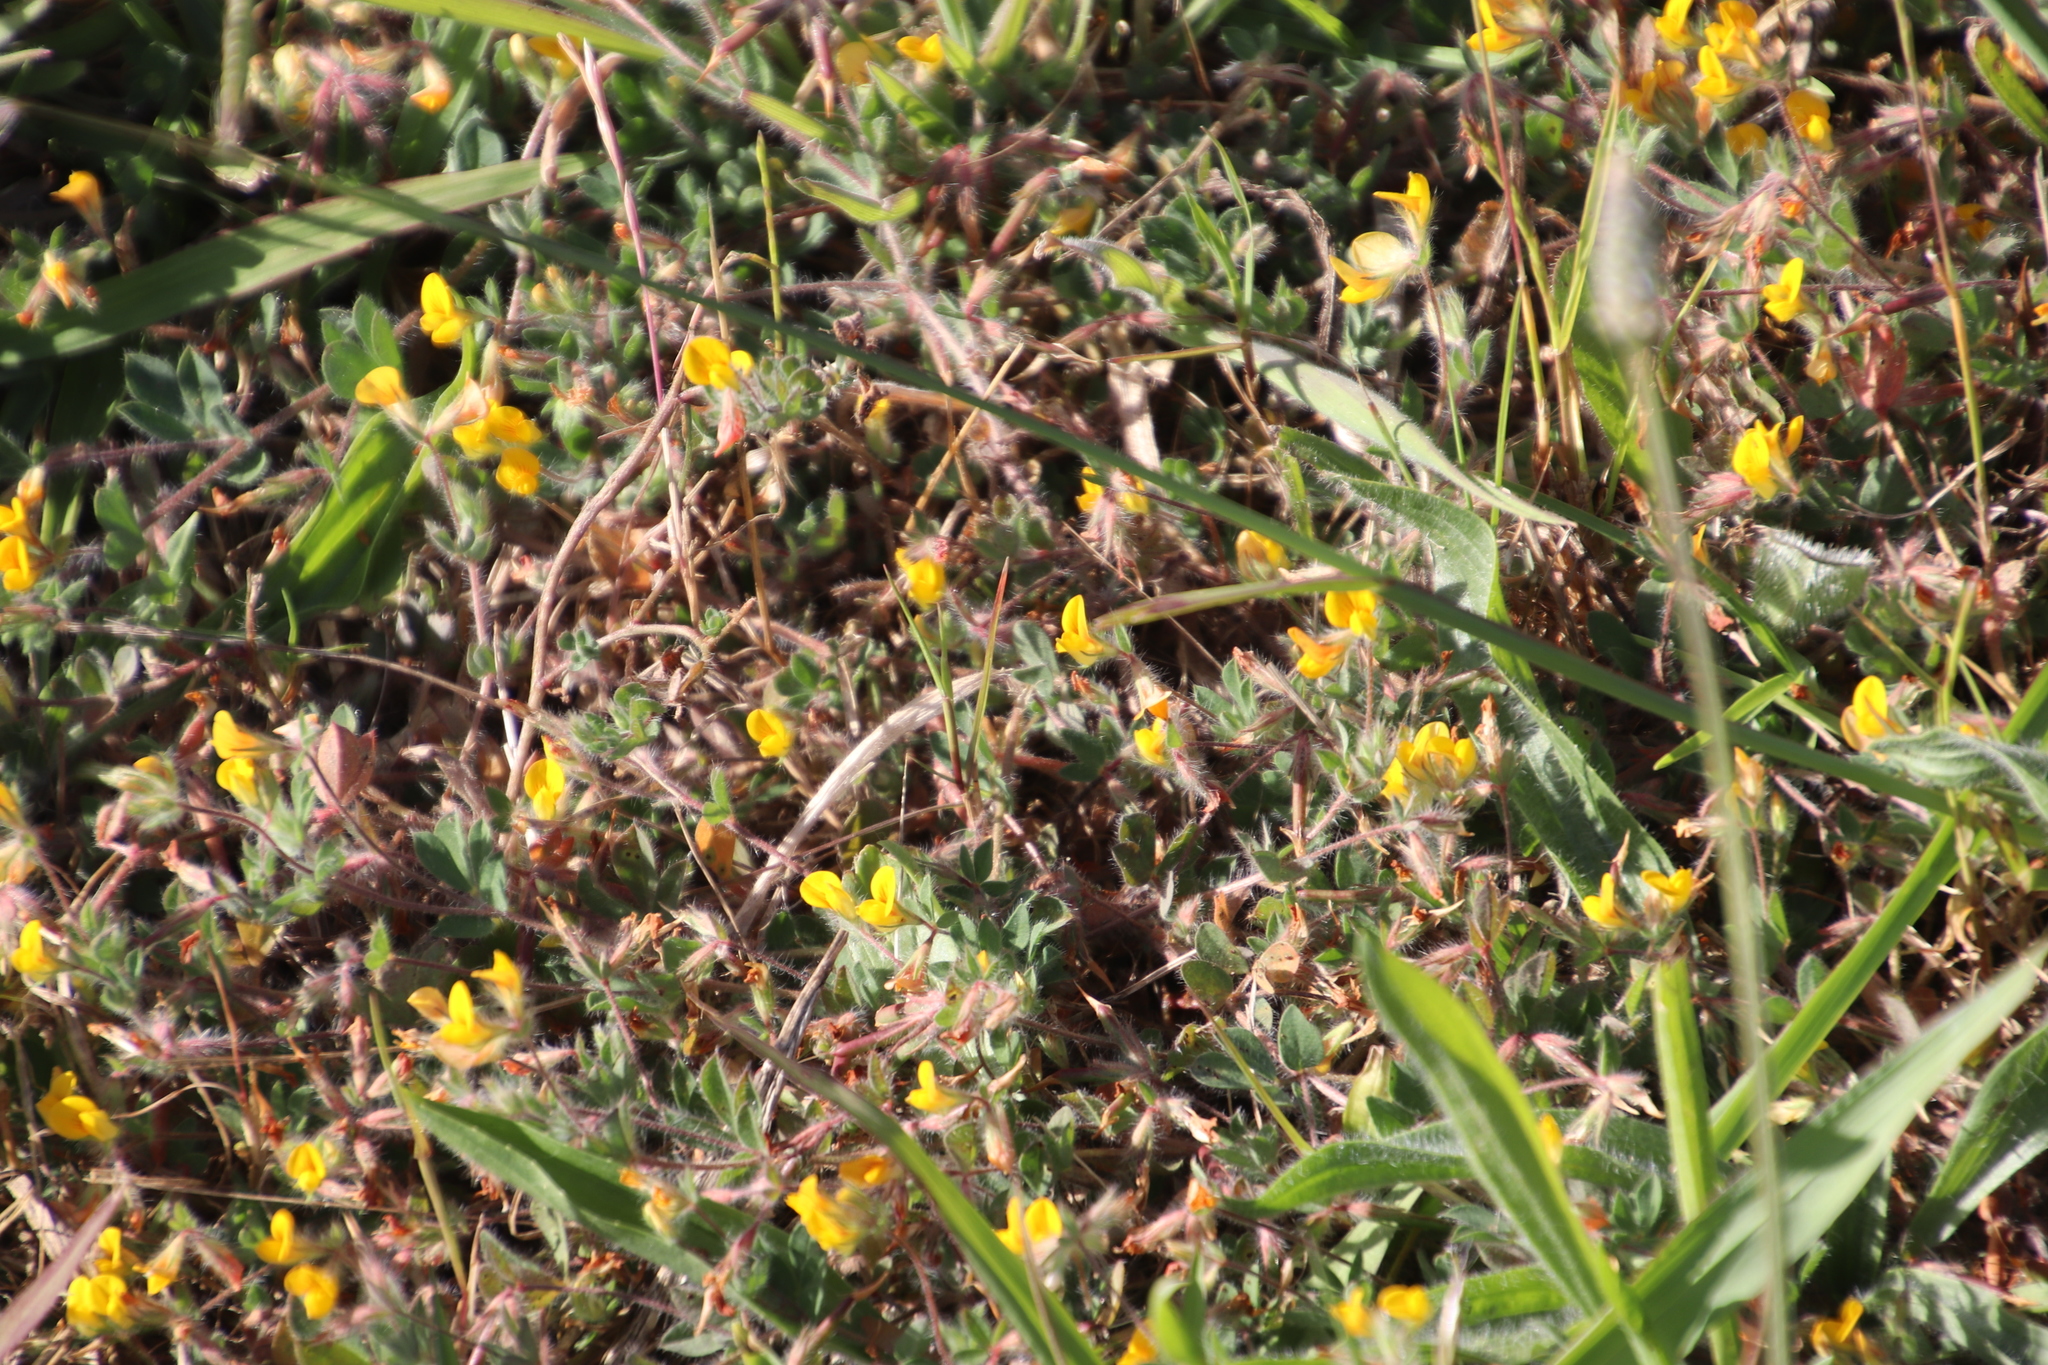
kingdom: Plantae
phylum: Tracheophyta
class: Magnoliopsida
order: Fabales
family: Fabaceae
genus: Lotus
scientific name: Lotus subbiflorus
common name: Hairy bird's-foot trefoil
